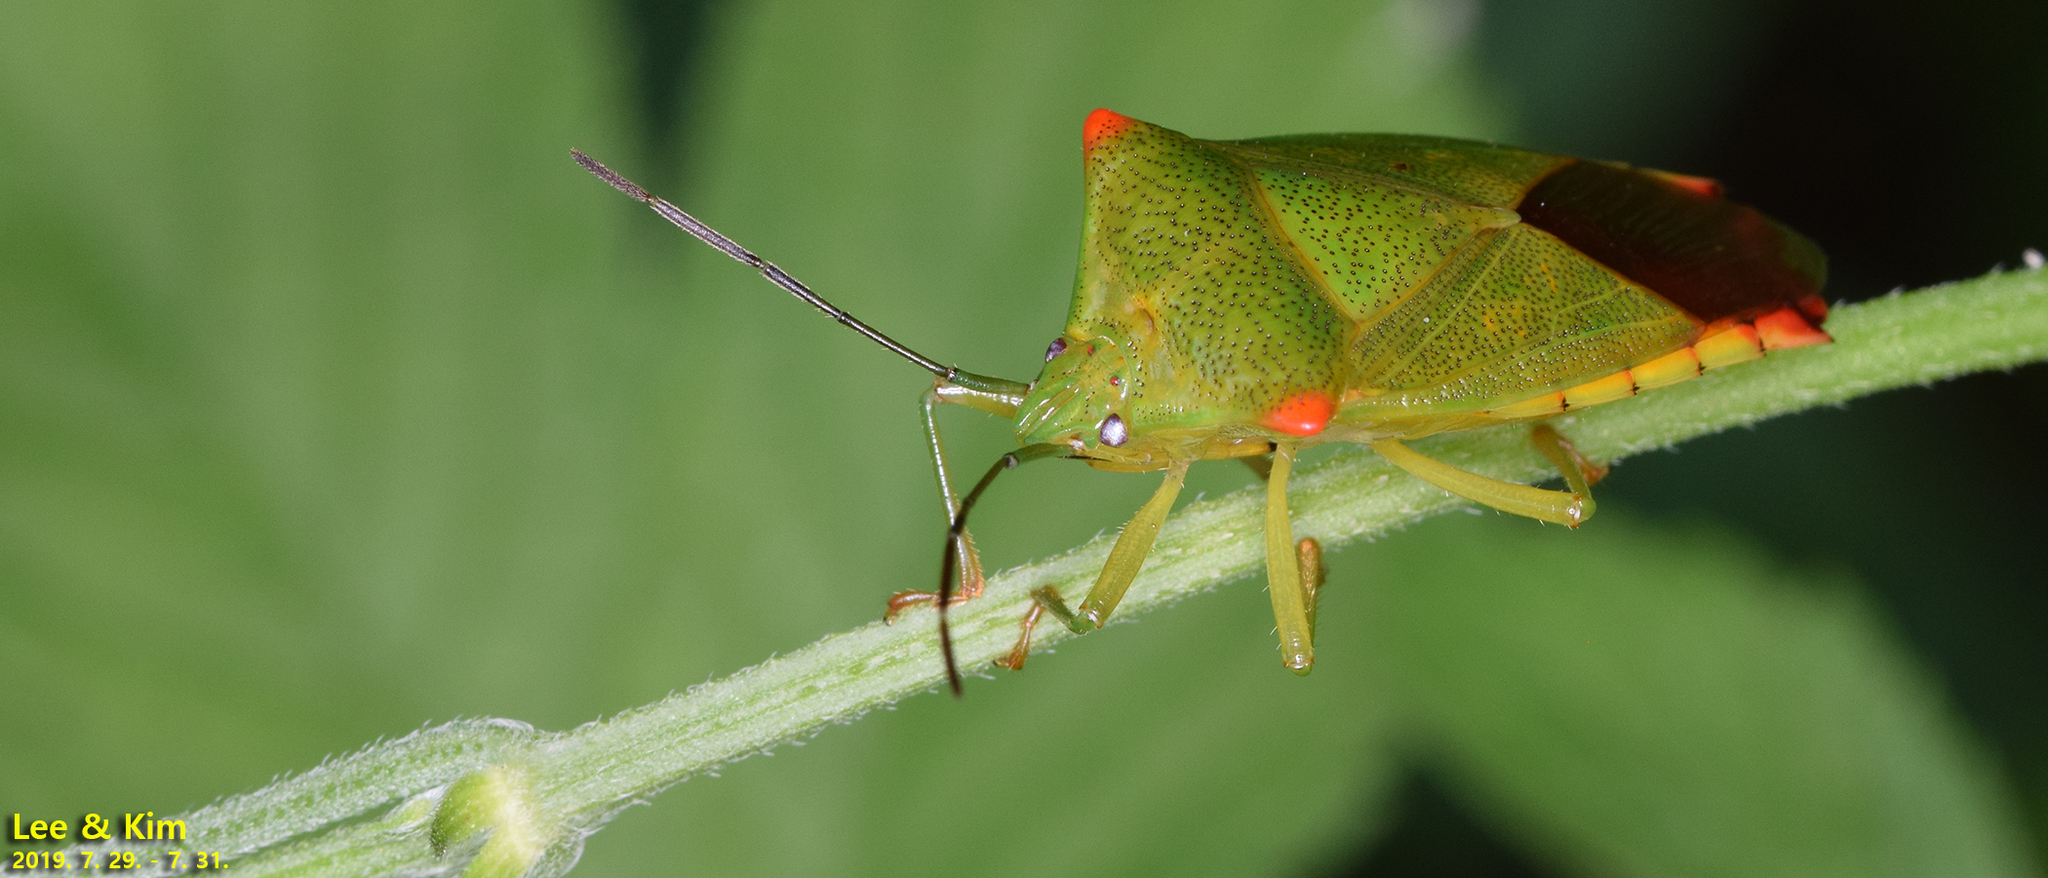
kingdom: Animalia
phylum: Arthropoda
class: Insecta
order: Hemiptera
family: Acanthosomatidae
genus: Acanthosoma
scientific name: Acanthosoma labiduroides
